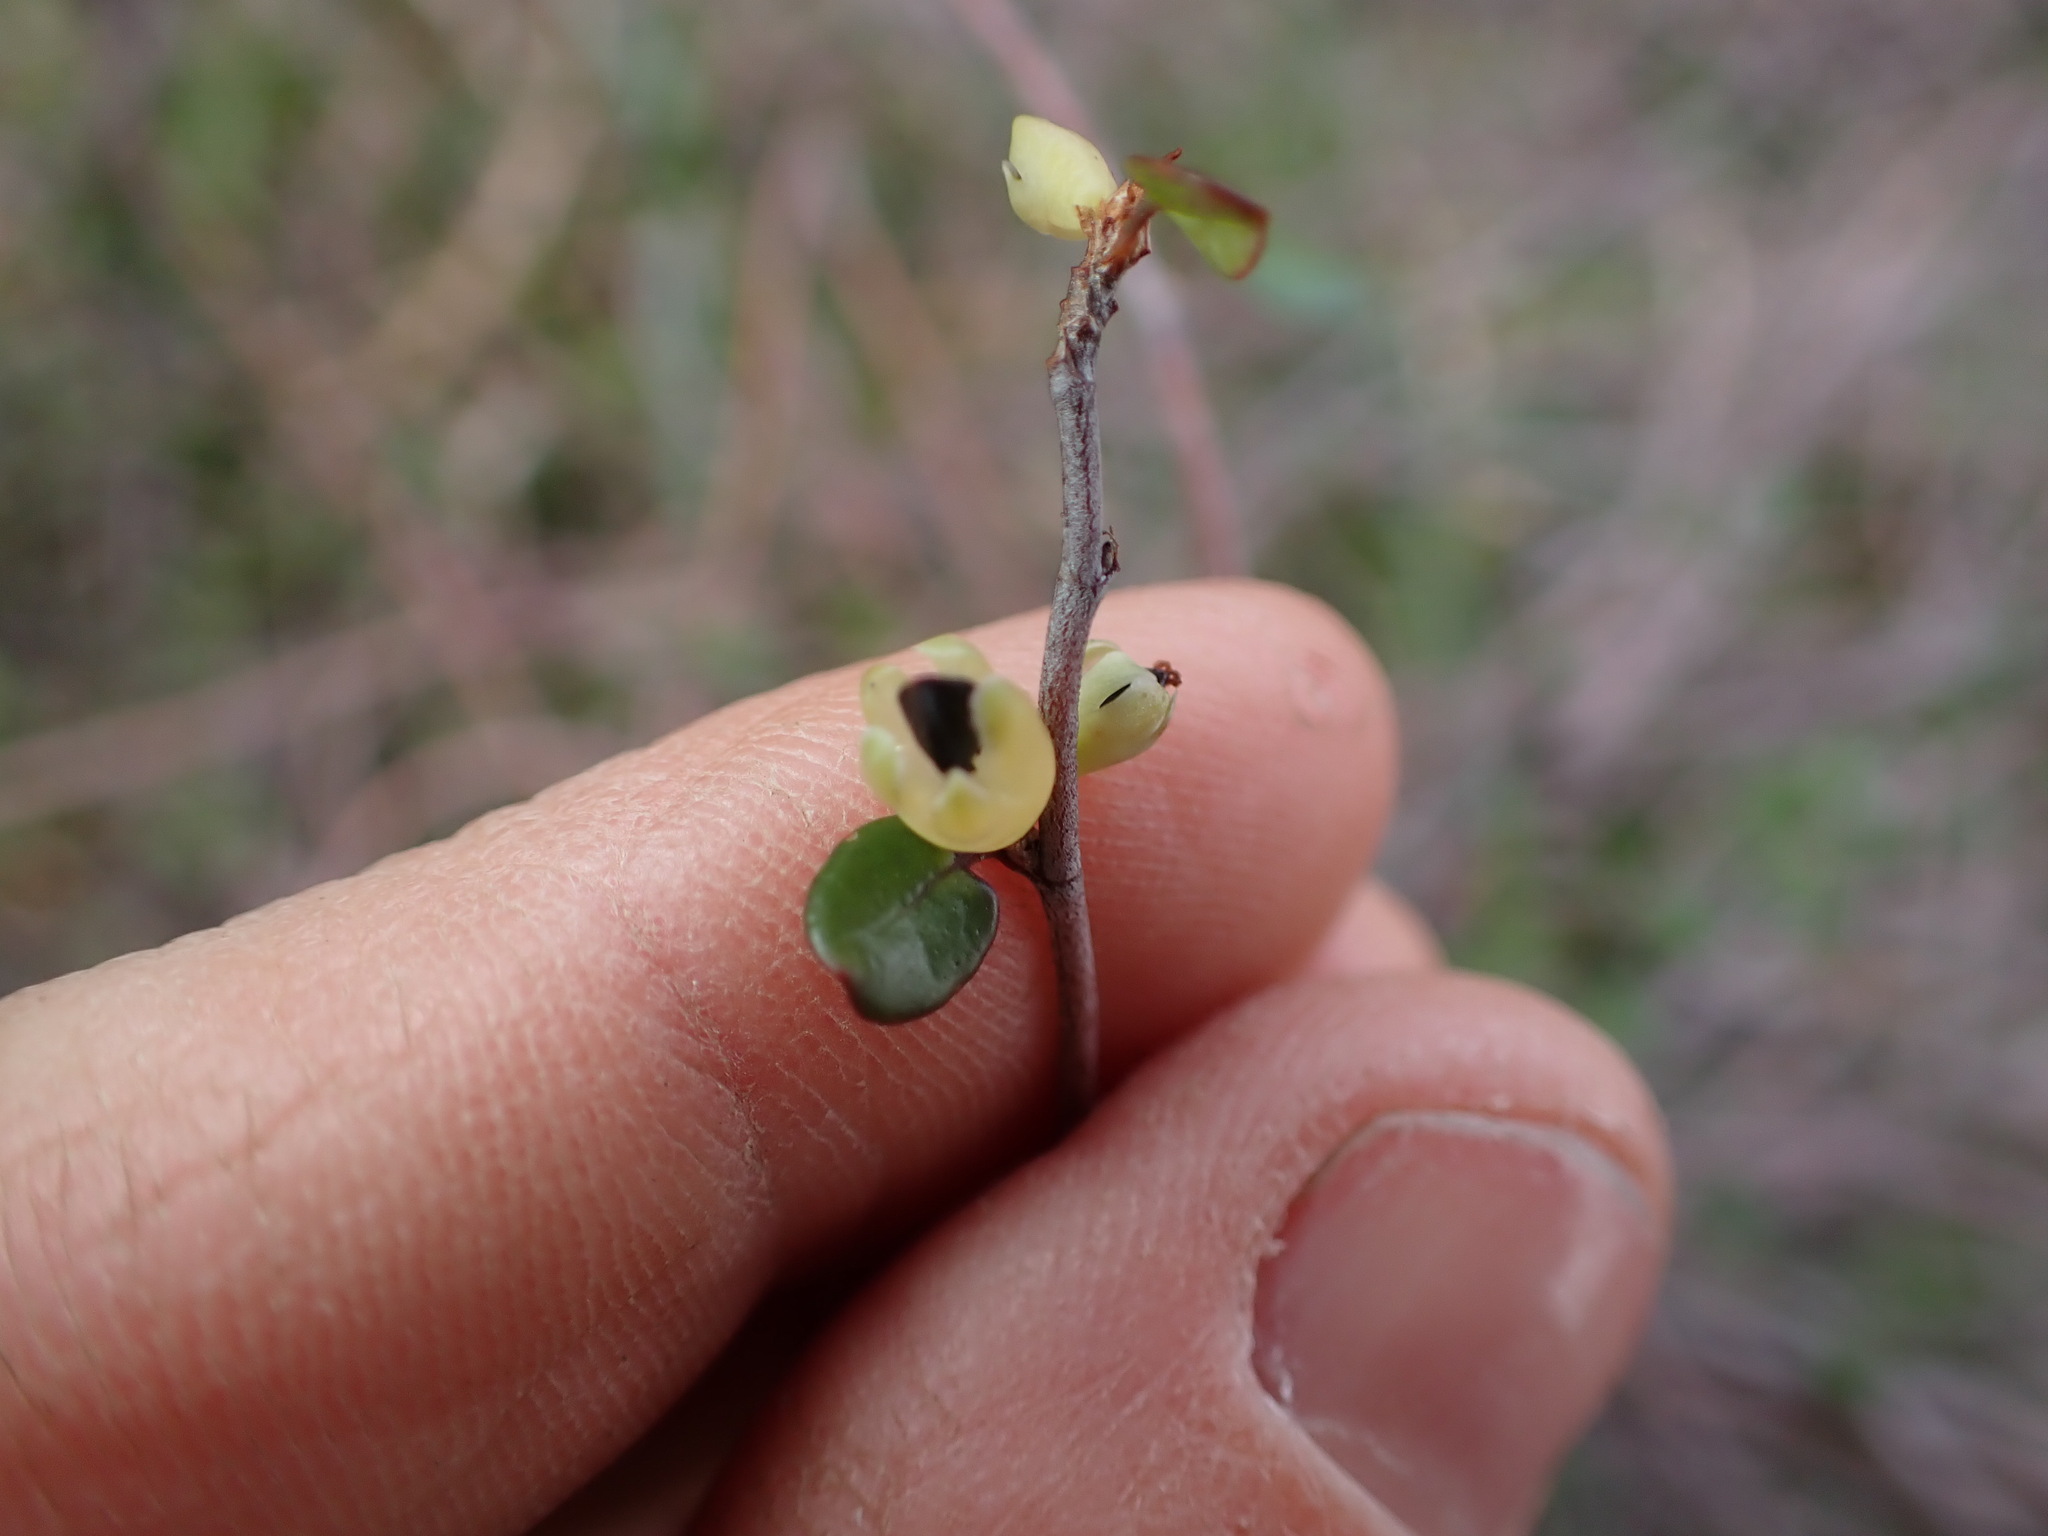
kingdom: Plantae
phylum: Tracheophyta
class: Magnoliopsida
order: Caryophyllales
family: Polygonaceae
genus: Muehlenbeckia
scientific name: Muehlenbeckia complexa
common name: Wireplant
